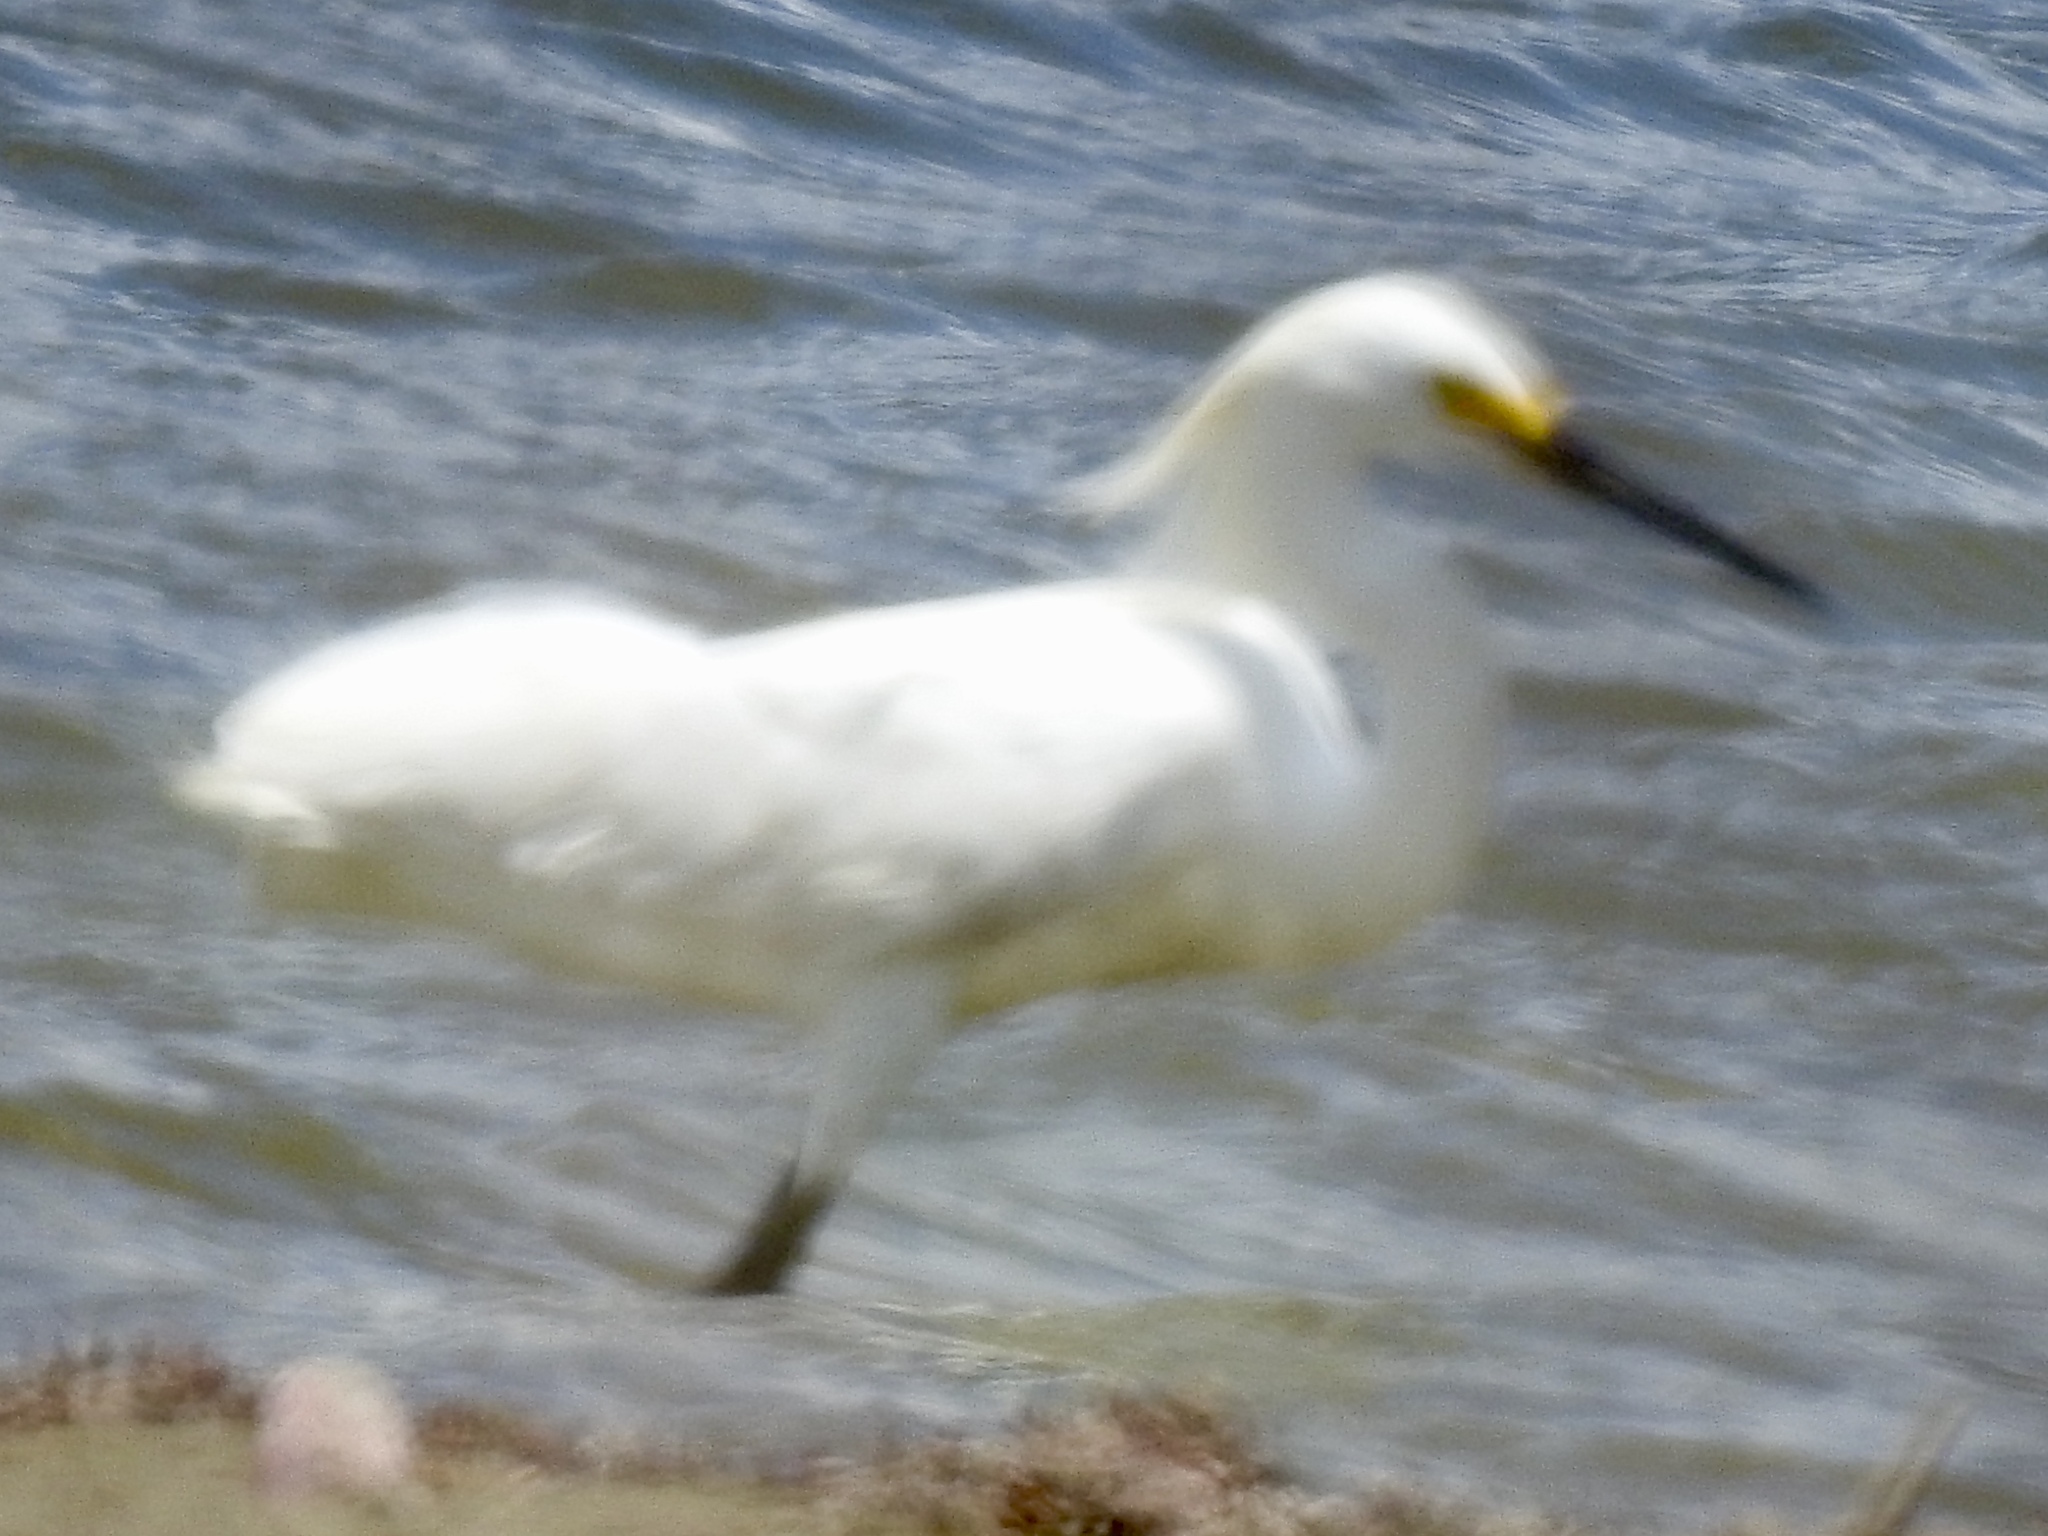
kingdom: Animalia
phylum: Chordata
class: Aves
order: Pelecaniformes
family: Ardeidae
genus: Egretta
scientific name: Egretta thula
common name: Snowy egret
